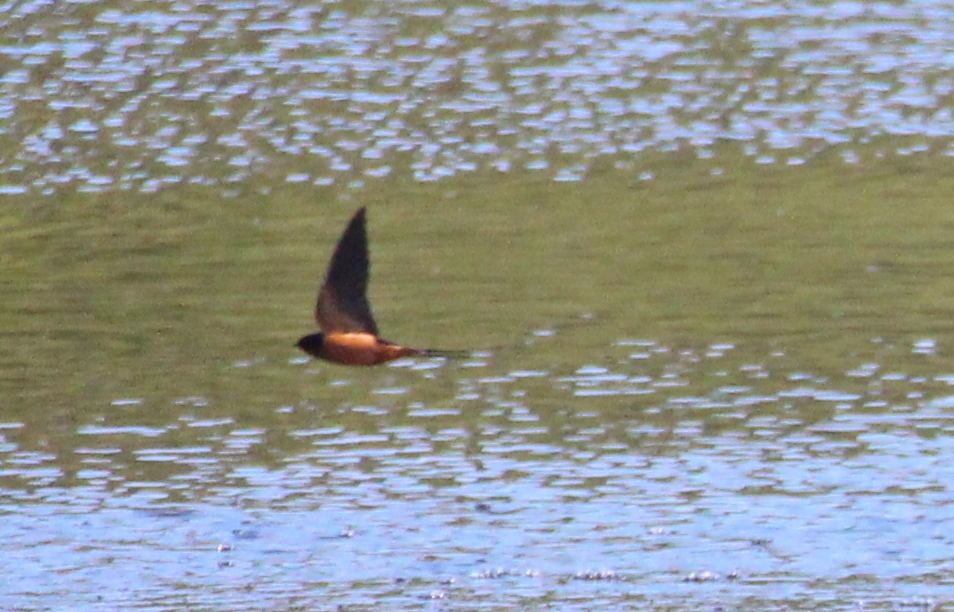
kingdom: Animalia
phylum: Chordata
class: Aves
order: Passeriformes
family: Hirundinidae
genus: Hirundo
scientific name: Hirundo rustica
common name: Barn swallow
